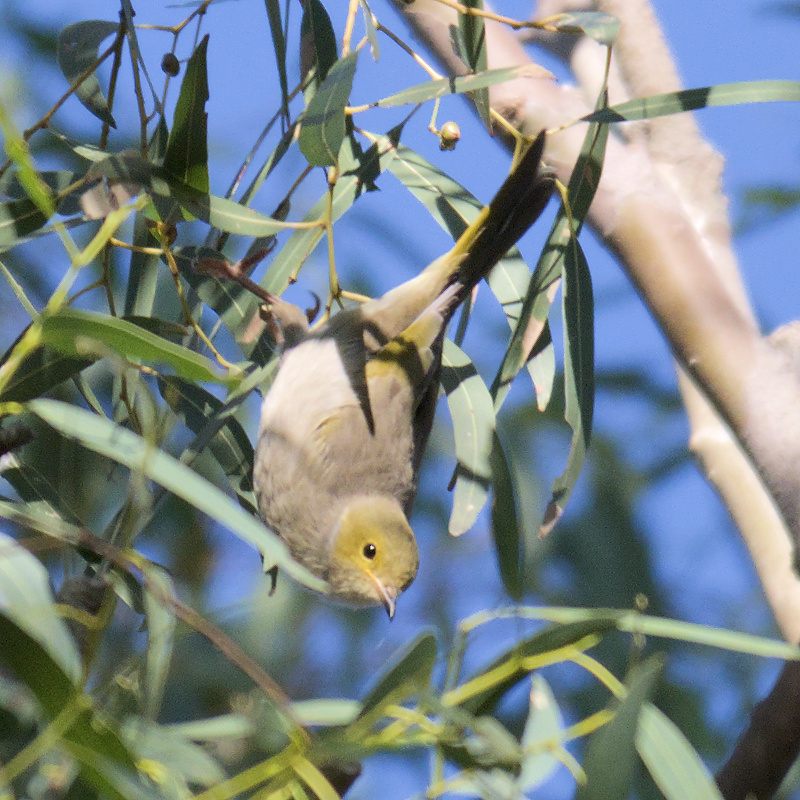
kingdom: Animalia
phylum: Chordata
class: Aves
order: Passeriformes
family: Meliphagidae
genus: Ptilotula
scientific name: Ptilotula penicillata
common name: White-plumed honeyeater
